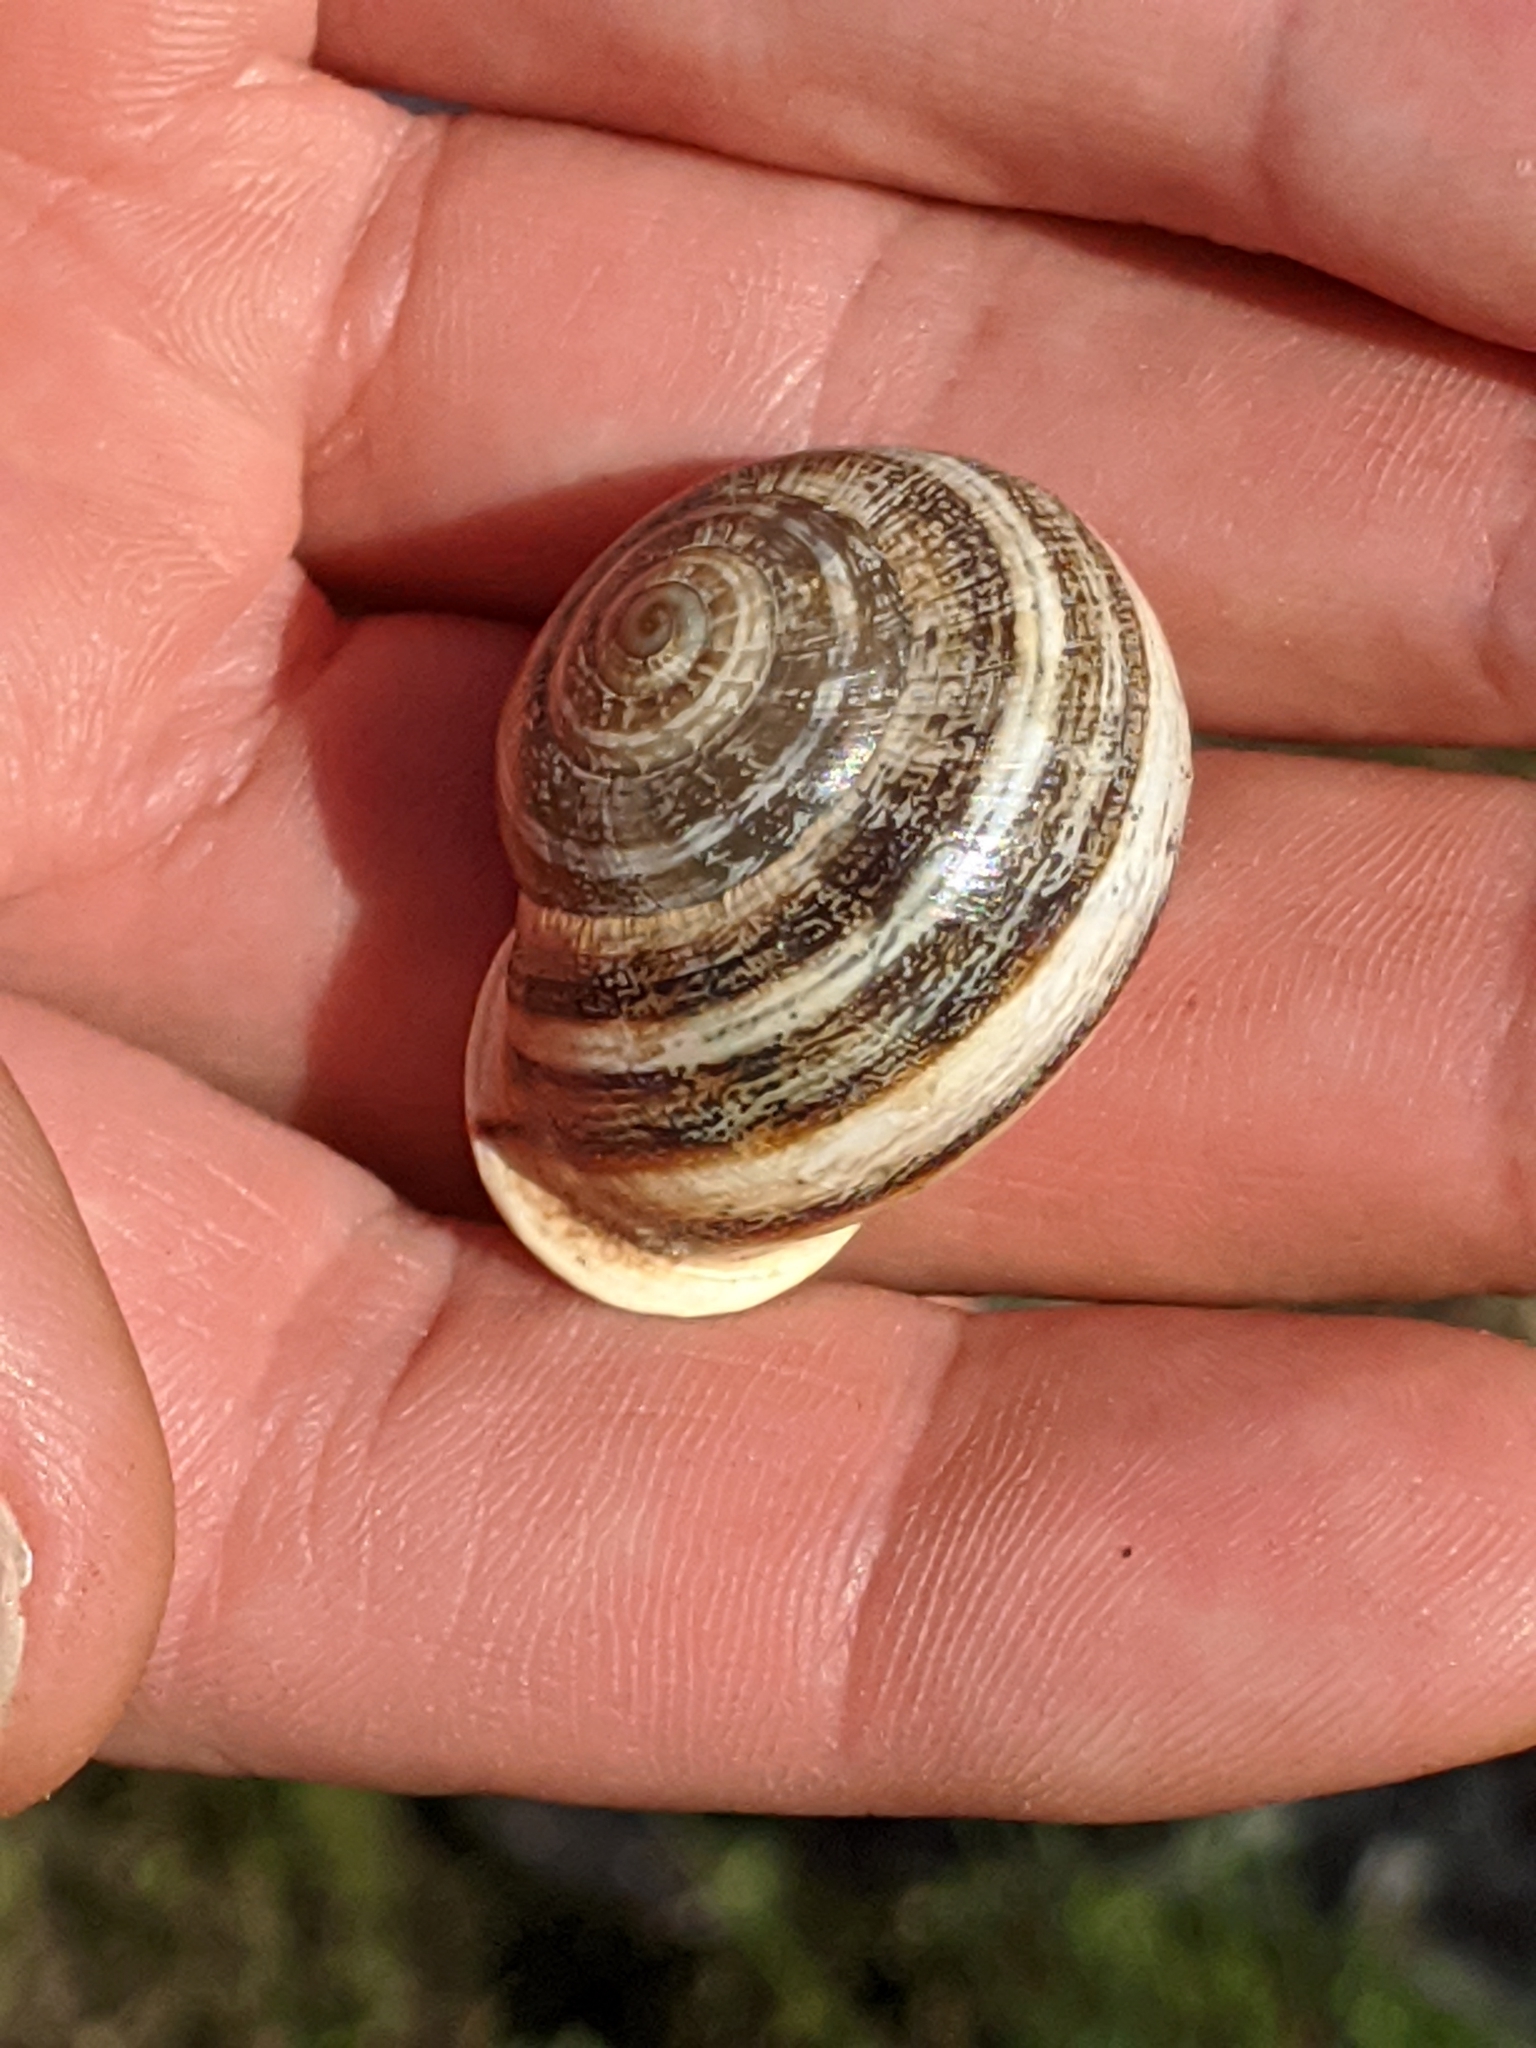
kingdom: Animalia
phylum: Mollusca
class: Gastropoda
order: Stylommatophora
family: Helicidae
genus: Otala
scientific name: Otala lactea
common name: Milk snail
